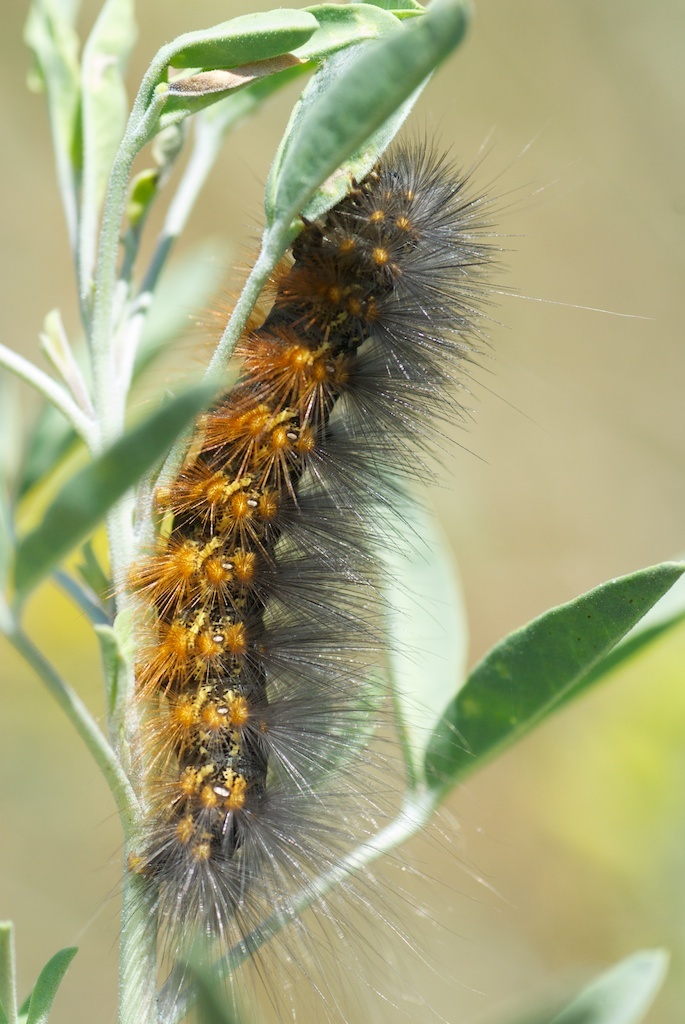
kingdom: Animalia
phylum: Arthropoda
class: Insecta
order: Lepidoptera
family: Erebidae
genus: Estigmene
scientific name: Estigmene acrea
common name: Salt marsh moth
